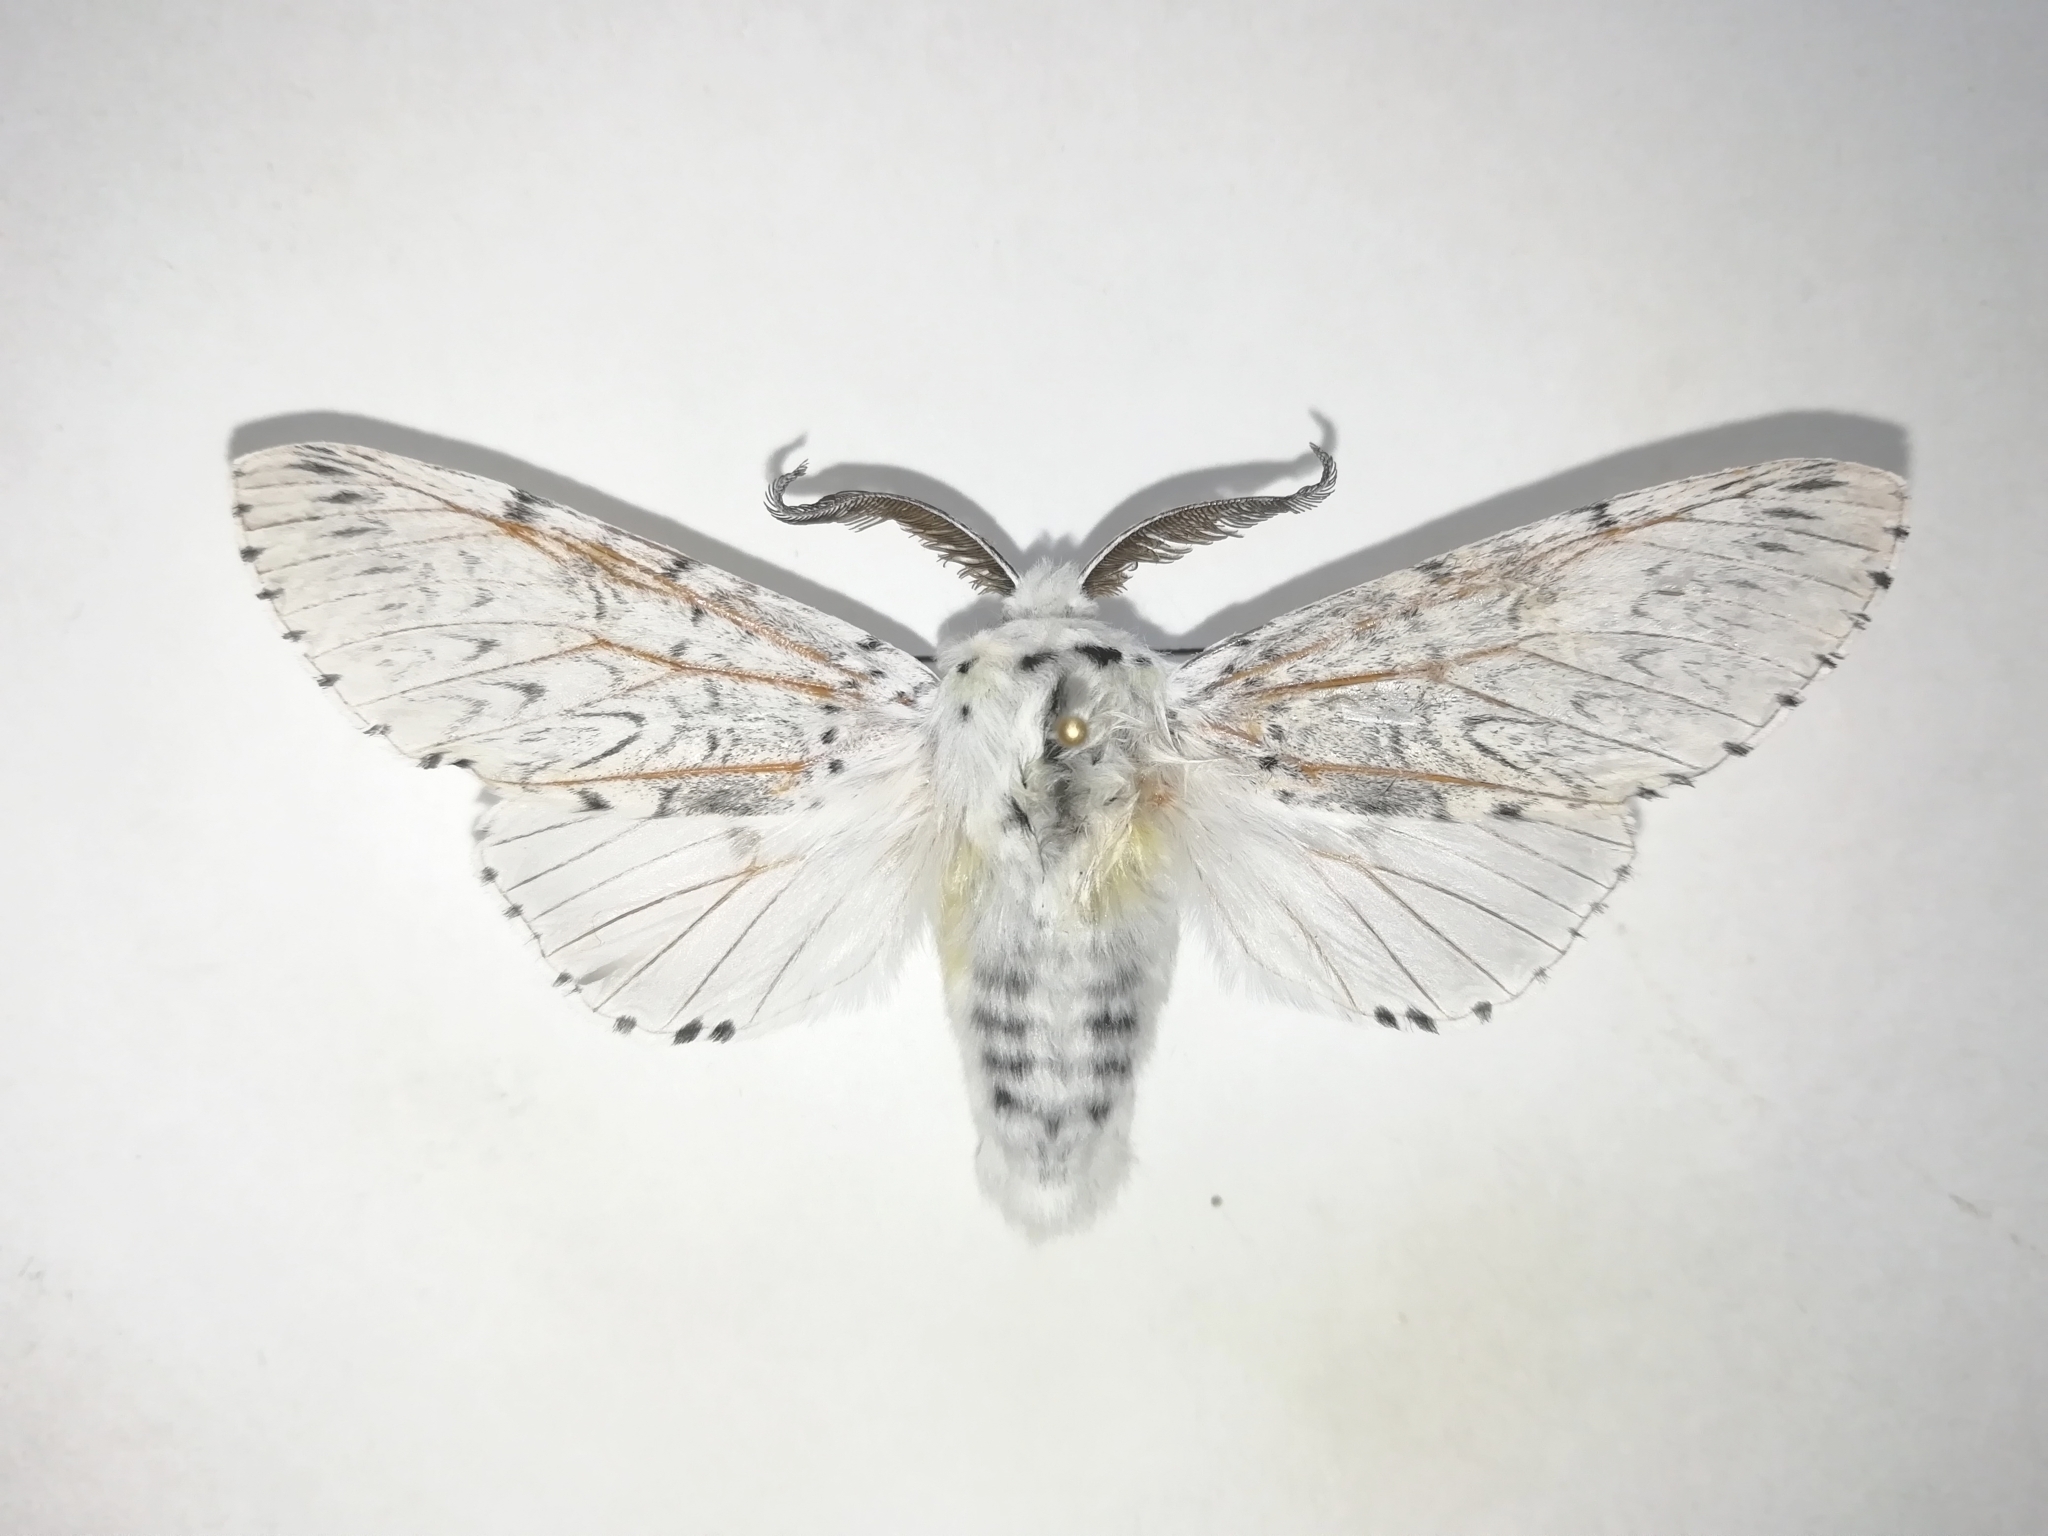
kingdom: Animalia
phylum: Arthropoda
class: Insecta
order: Lepidoptera
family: Notodontidae
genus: Cerura
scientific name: Cerura vinula
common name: Puss moth
